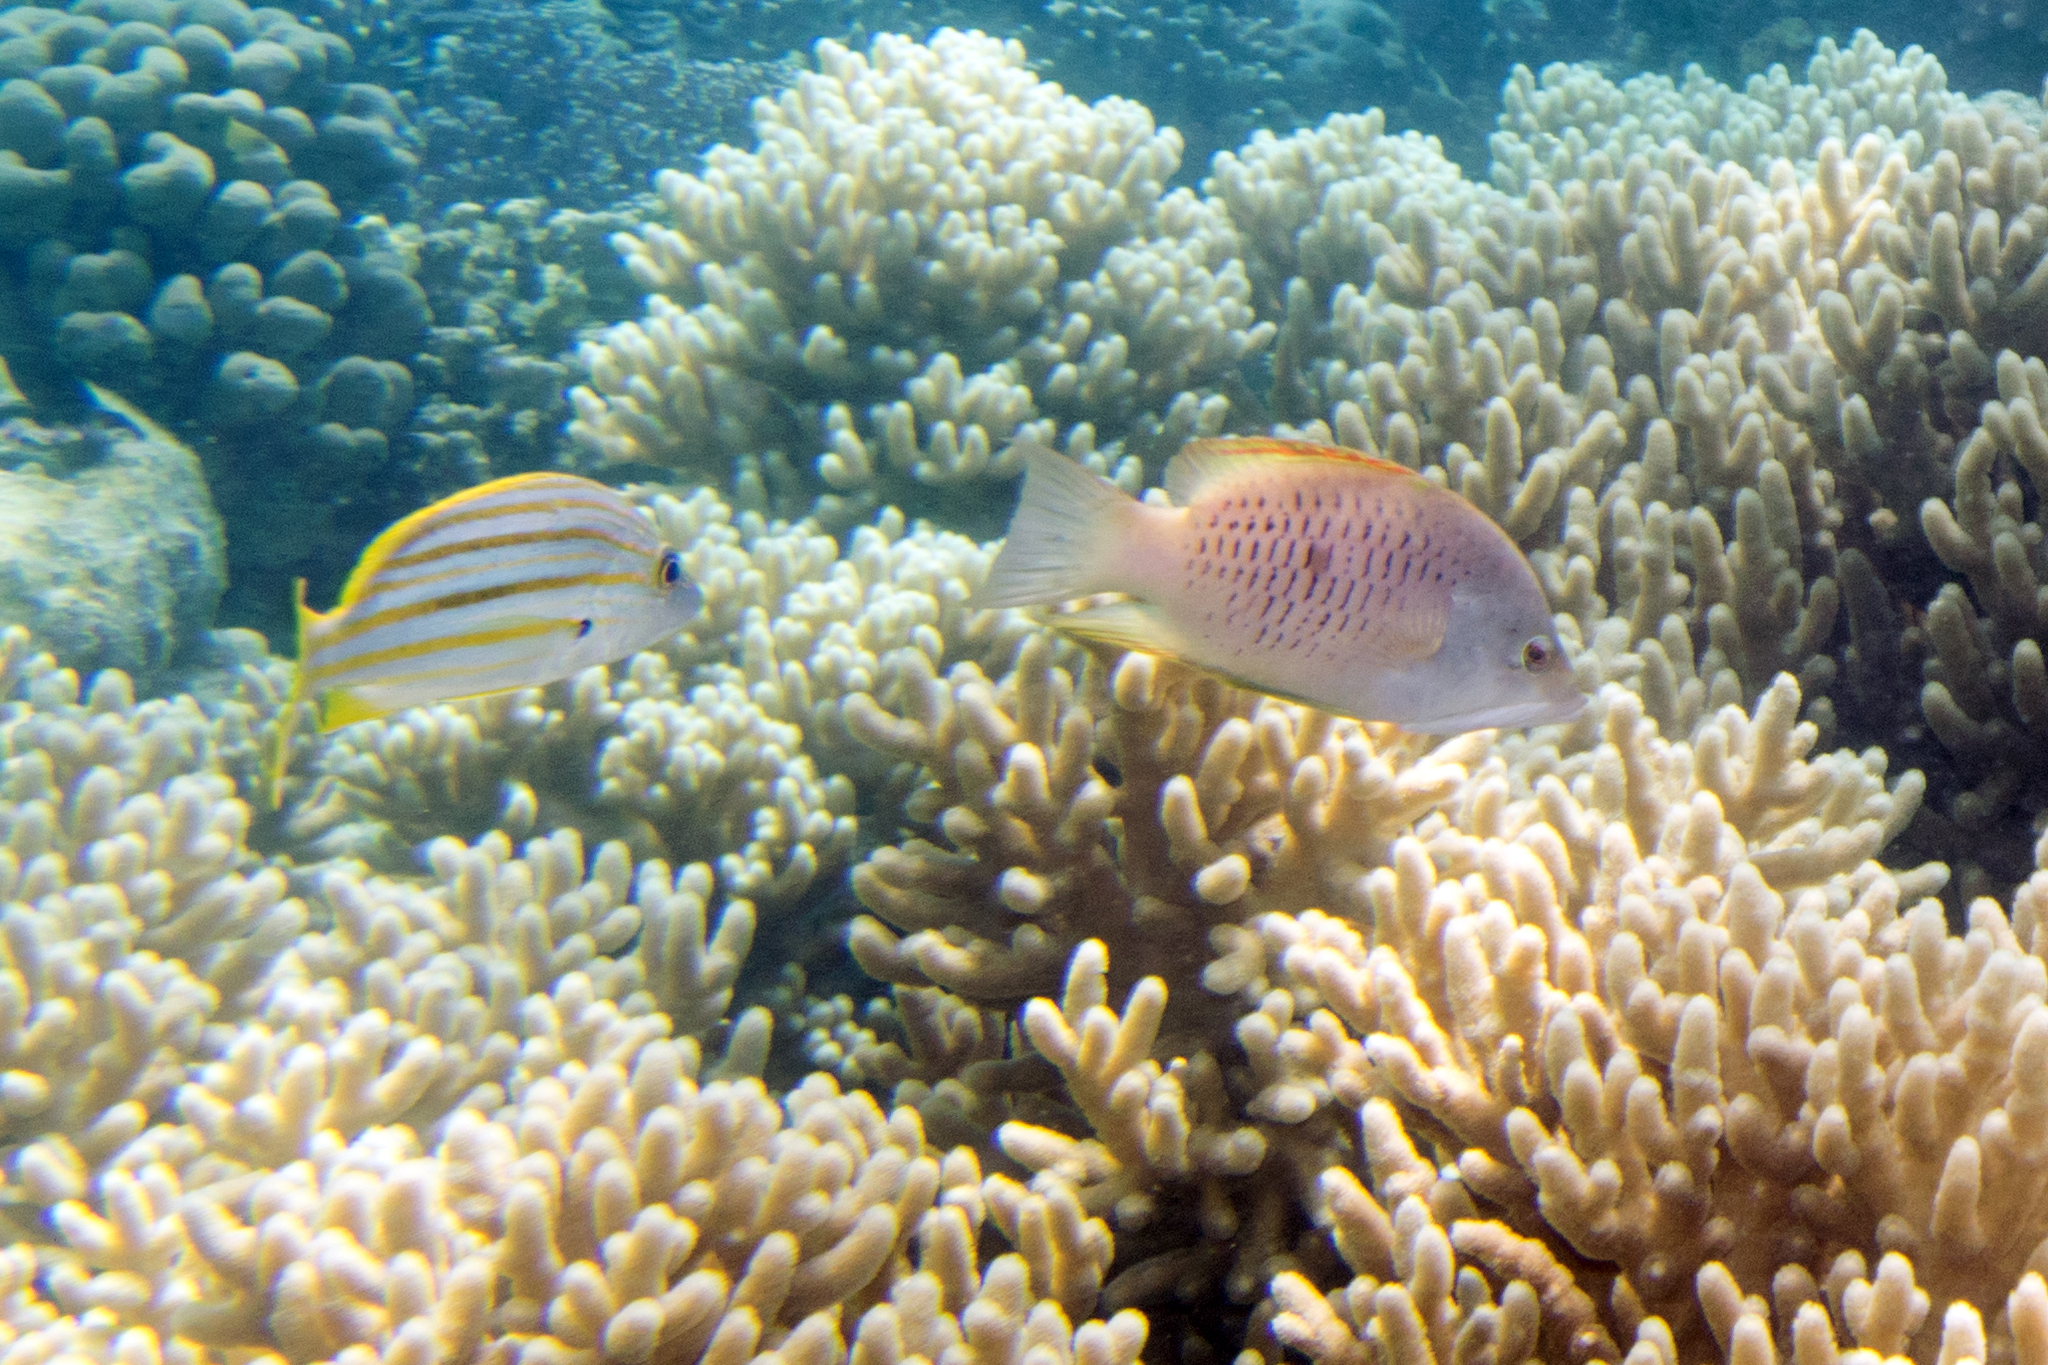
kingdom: Animalia
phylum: Chordata
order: Perciformes
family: Lutjanidae
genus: Lutjanus
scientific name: Lutjanus carponotatus
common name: Spanish flag
